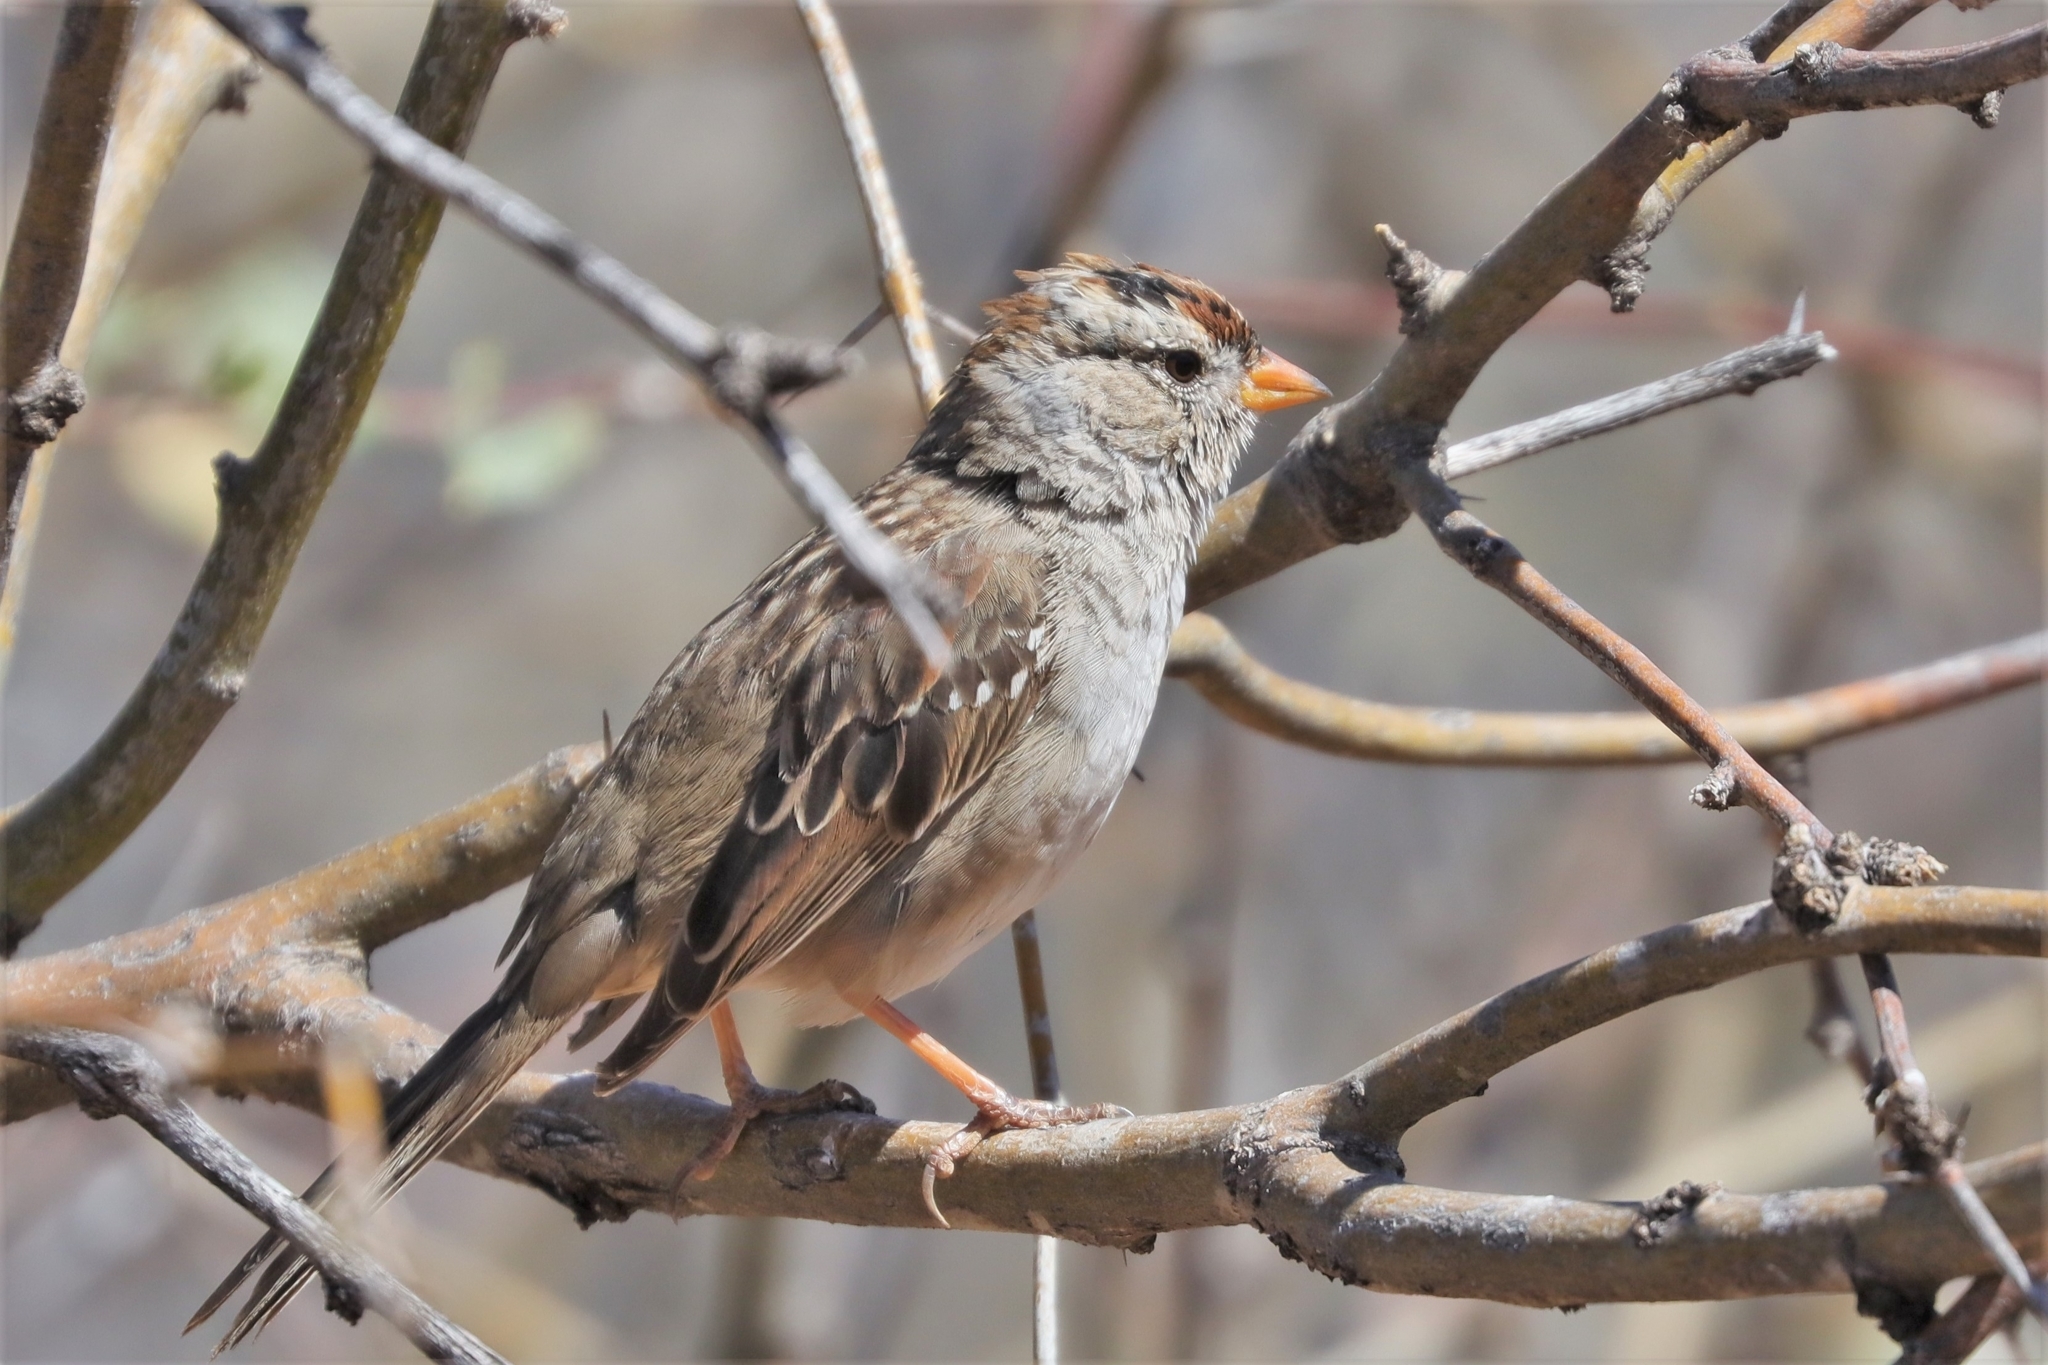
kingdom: Animalia
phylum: Chordata
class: Aves
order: Passeriformes
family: Passerellidae
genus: Zonotrichia
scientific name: Zonotrichia leucophrys
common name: White-crowned sparrow
